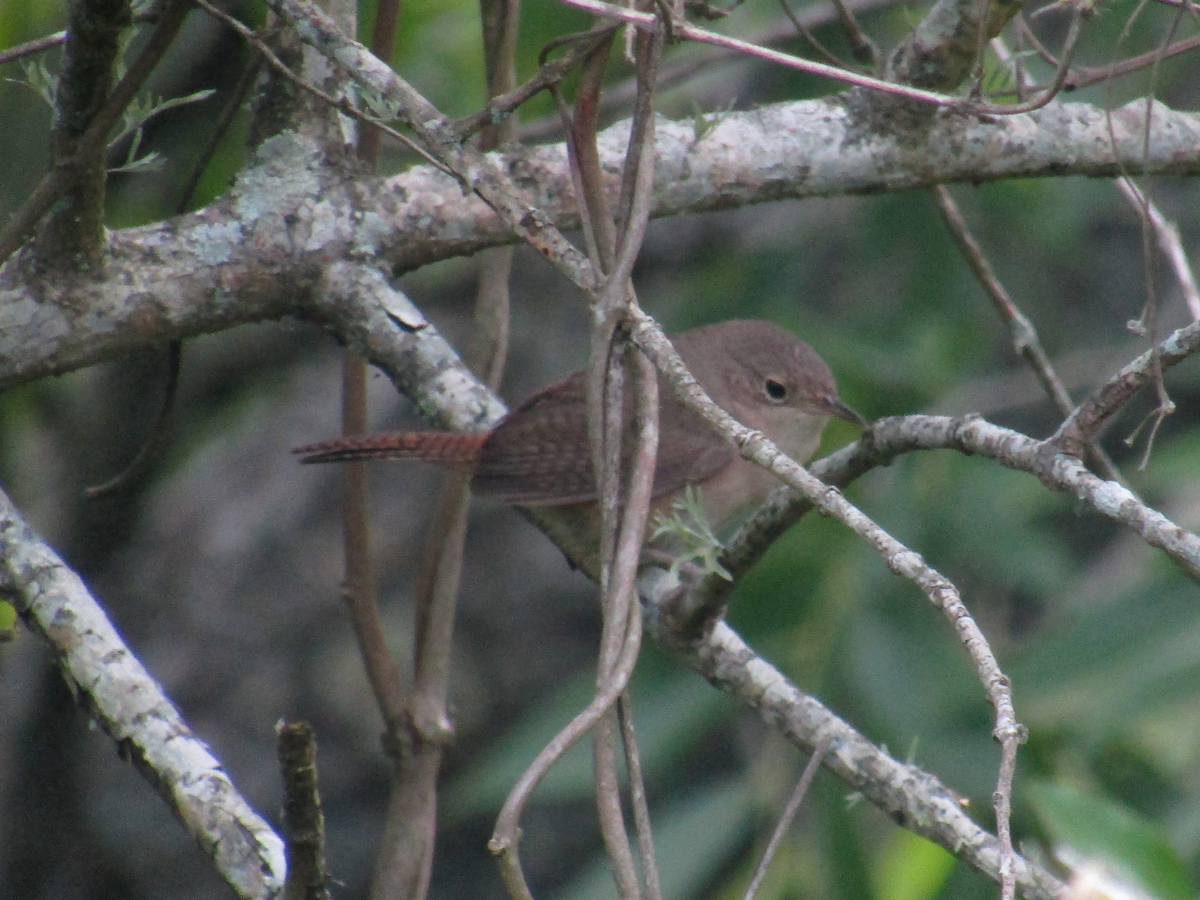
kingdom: Animalia
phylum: Chordata
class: Aves
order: Passeriformes
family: Troglodytidae
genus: Troglodytes
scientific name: Troglodytes aedon
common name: House wren
